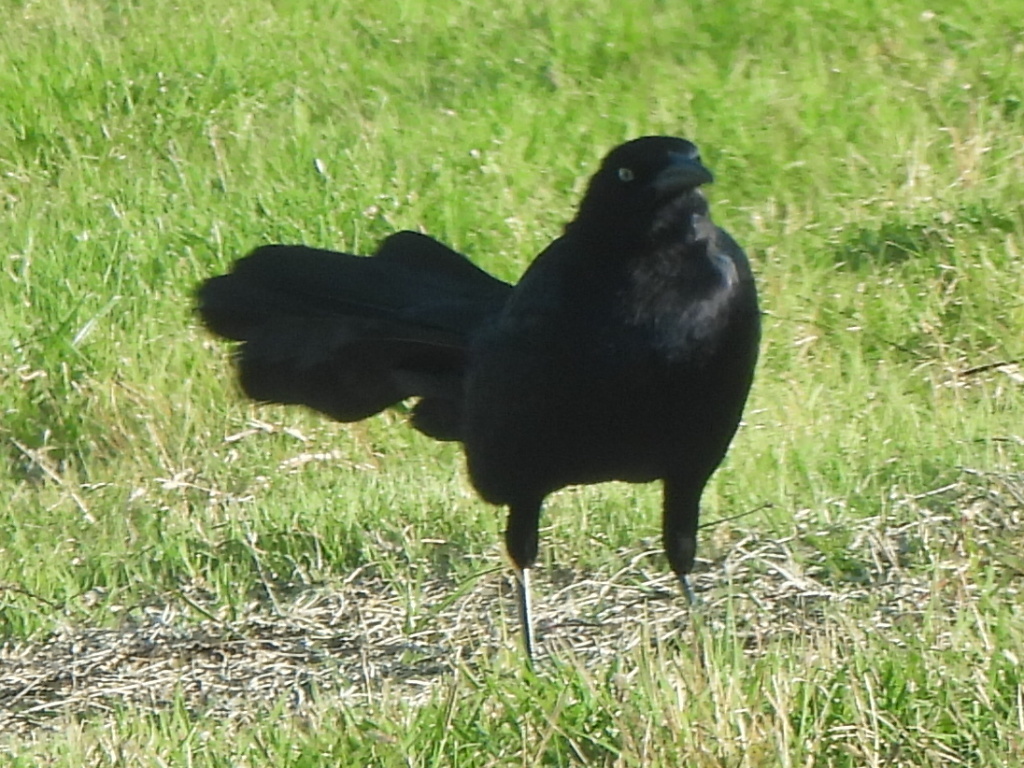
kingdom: Animalia
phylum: Chordata
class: Aves
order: Passeriformes
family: Icteridae
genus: Quiscalus
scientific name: Quiscalus mexicanus
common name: Great-tailed grackle
